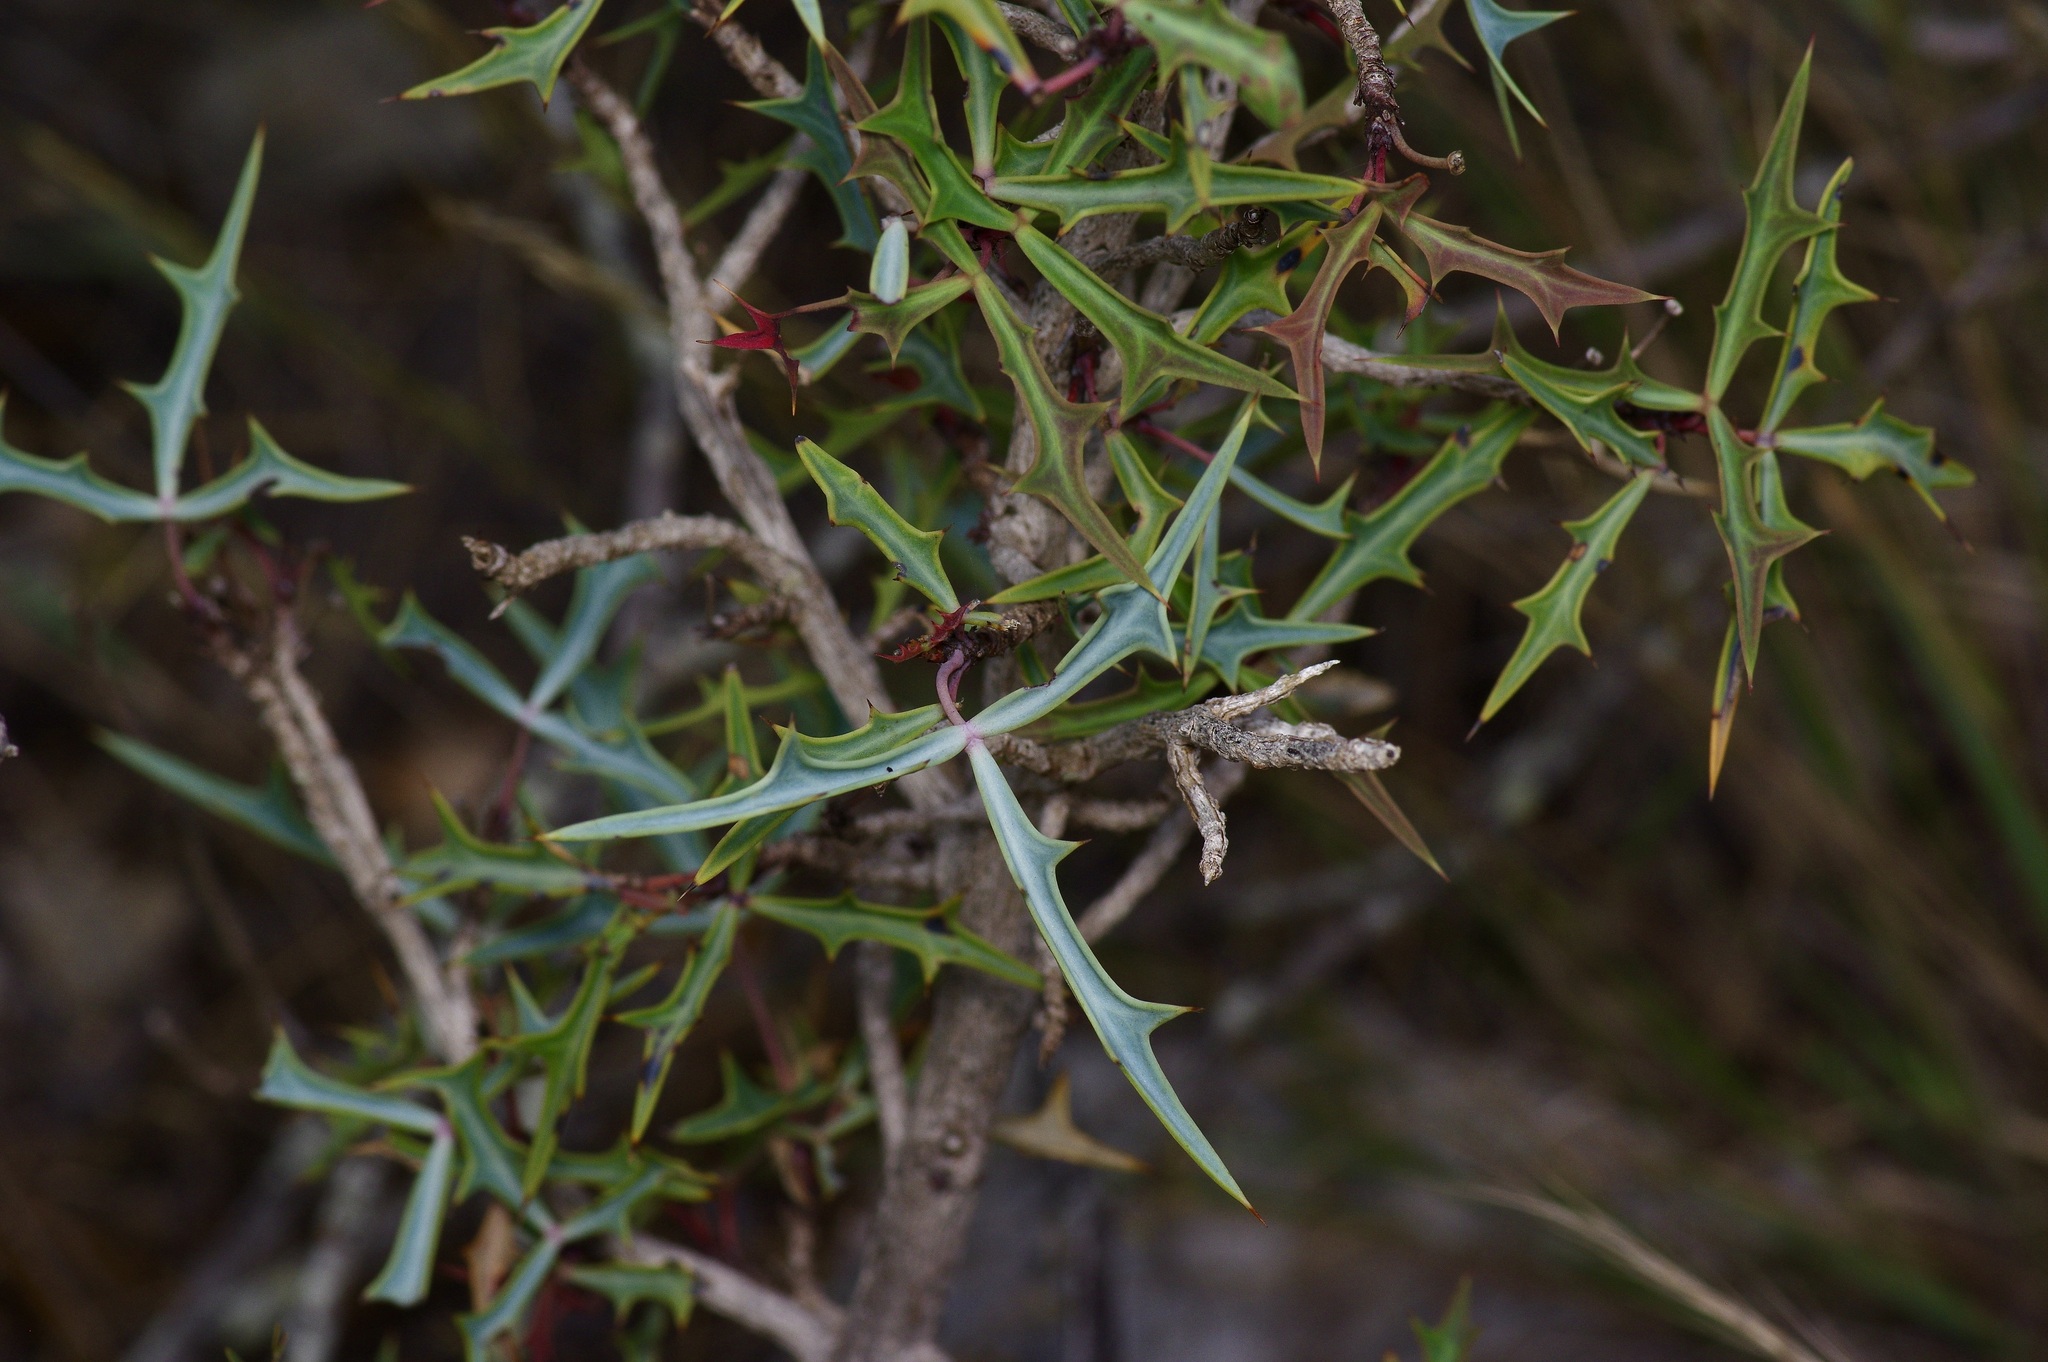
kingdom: Plantae
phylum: Tracheophyta
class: Magnoliopsida
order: Ranunculales
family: Berberidaceae
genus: Alloberberis
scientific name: Alloberberis trifoliolata
